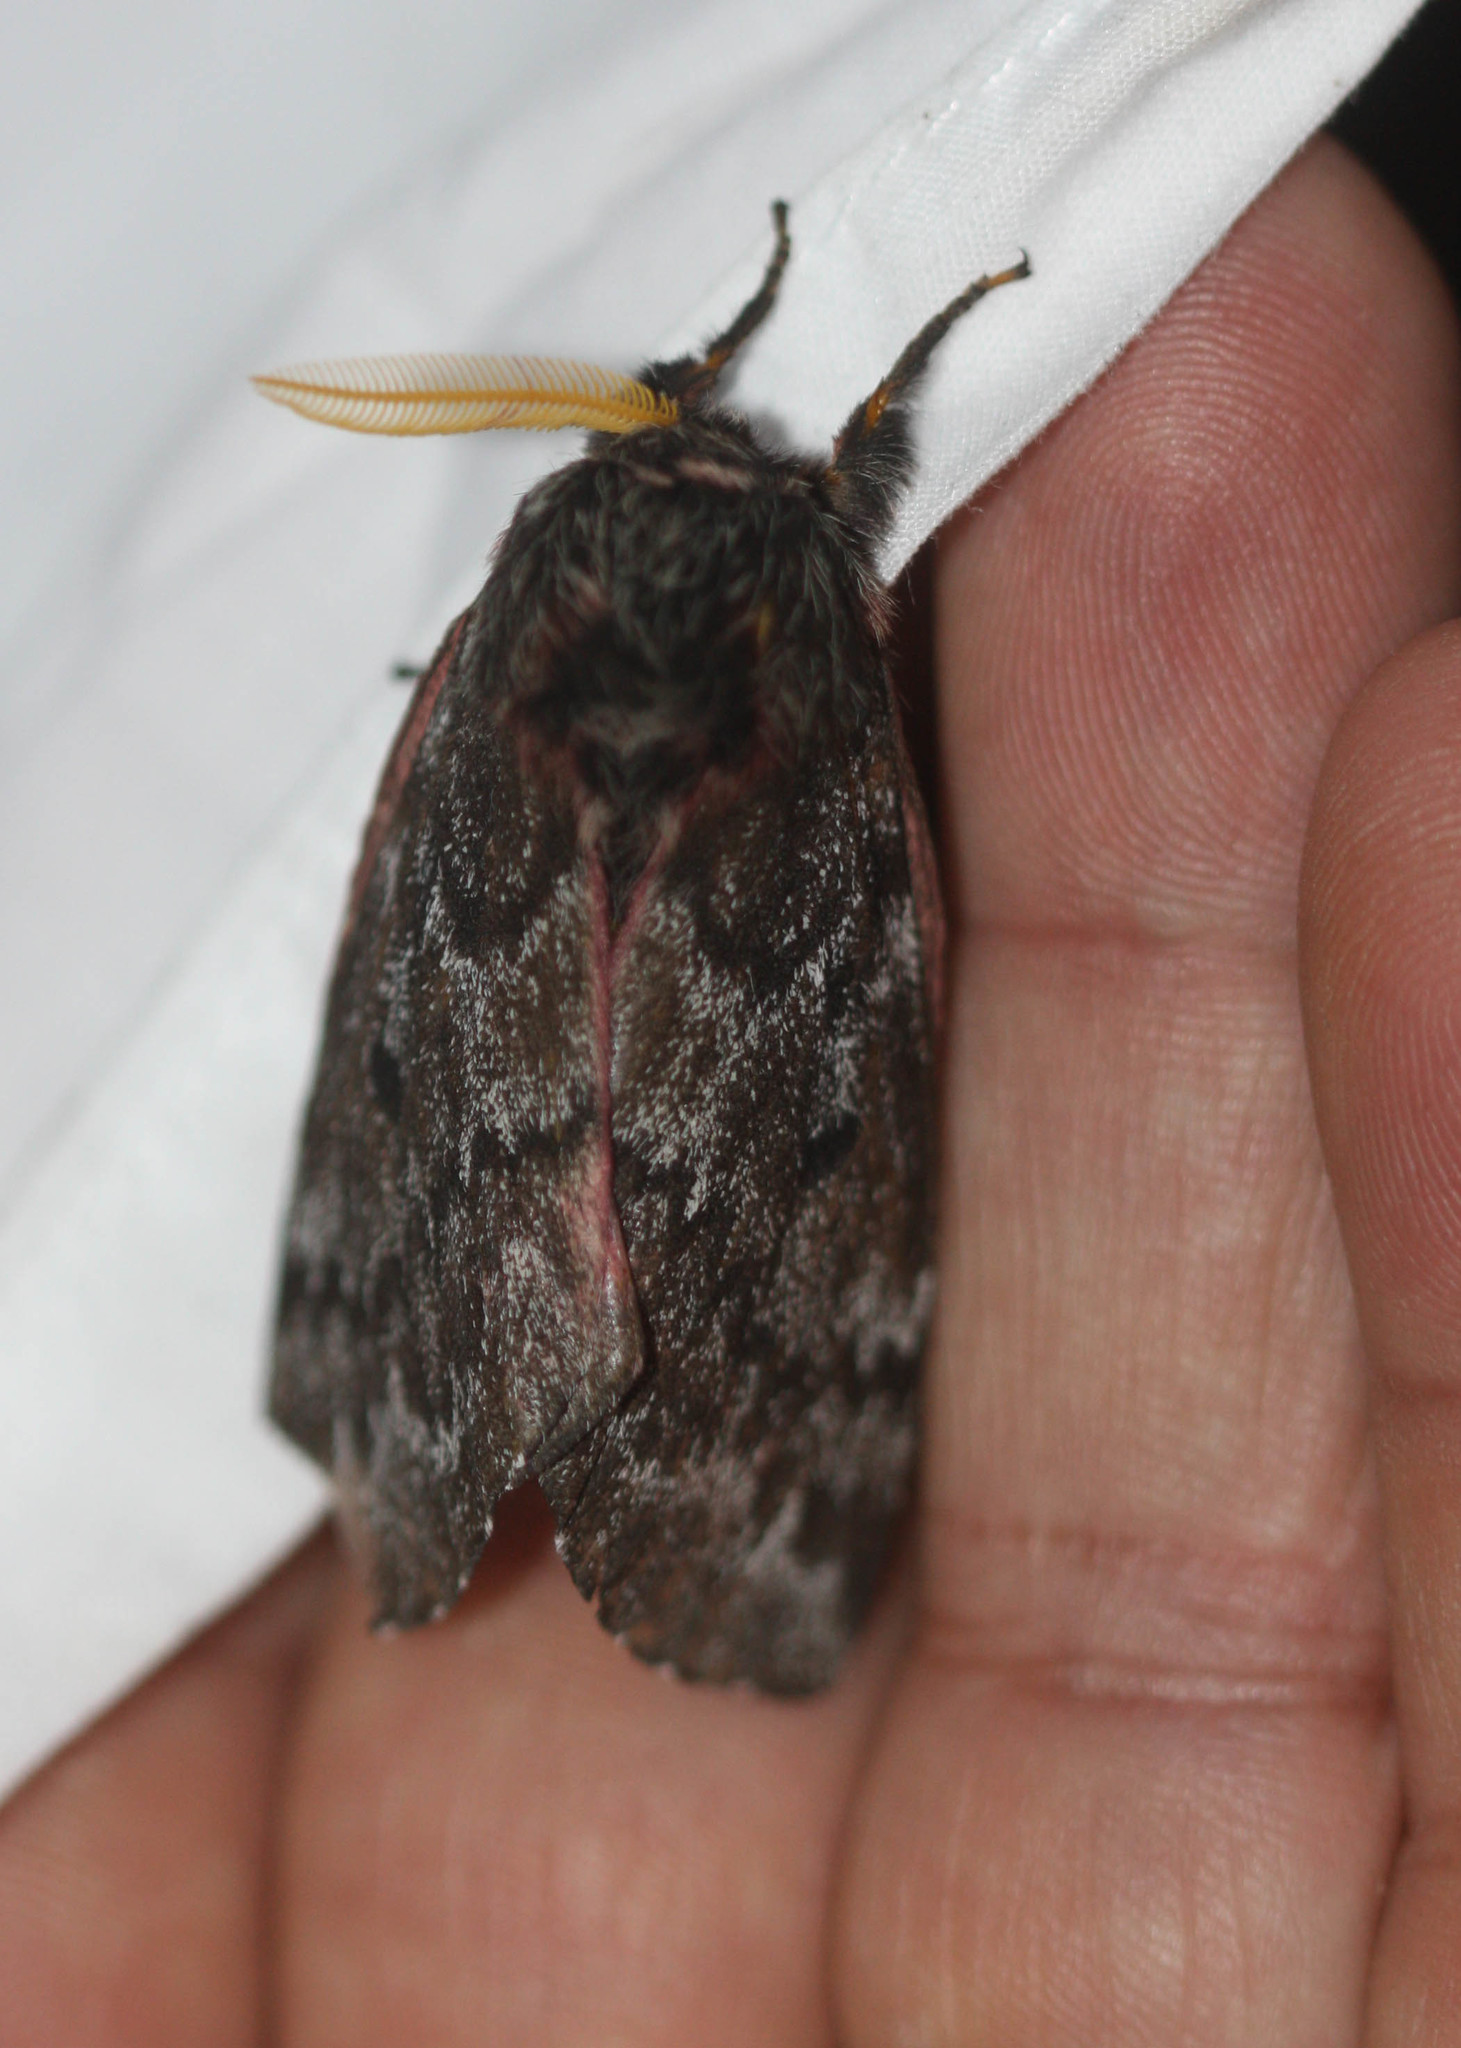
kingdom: Animalia
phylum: Arthropoda
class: Insecta
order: Lepidoptera
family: Saturniidae
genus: Coloradia
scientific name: Coloradia pandora
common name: Pandora pinemoth
